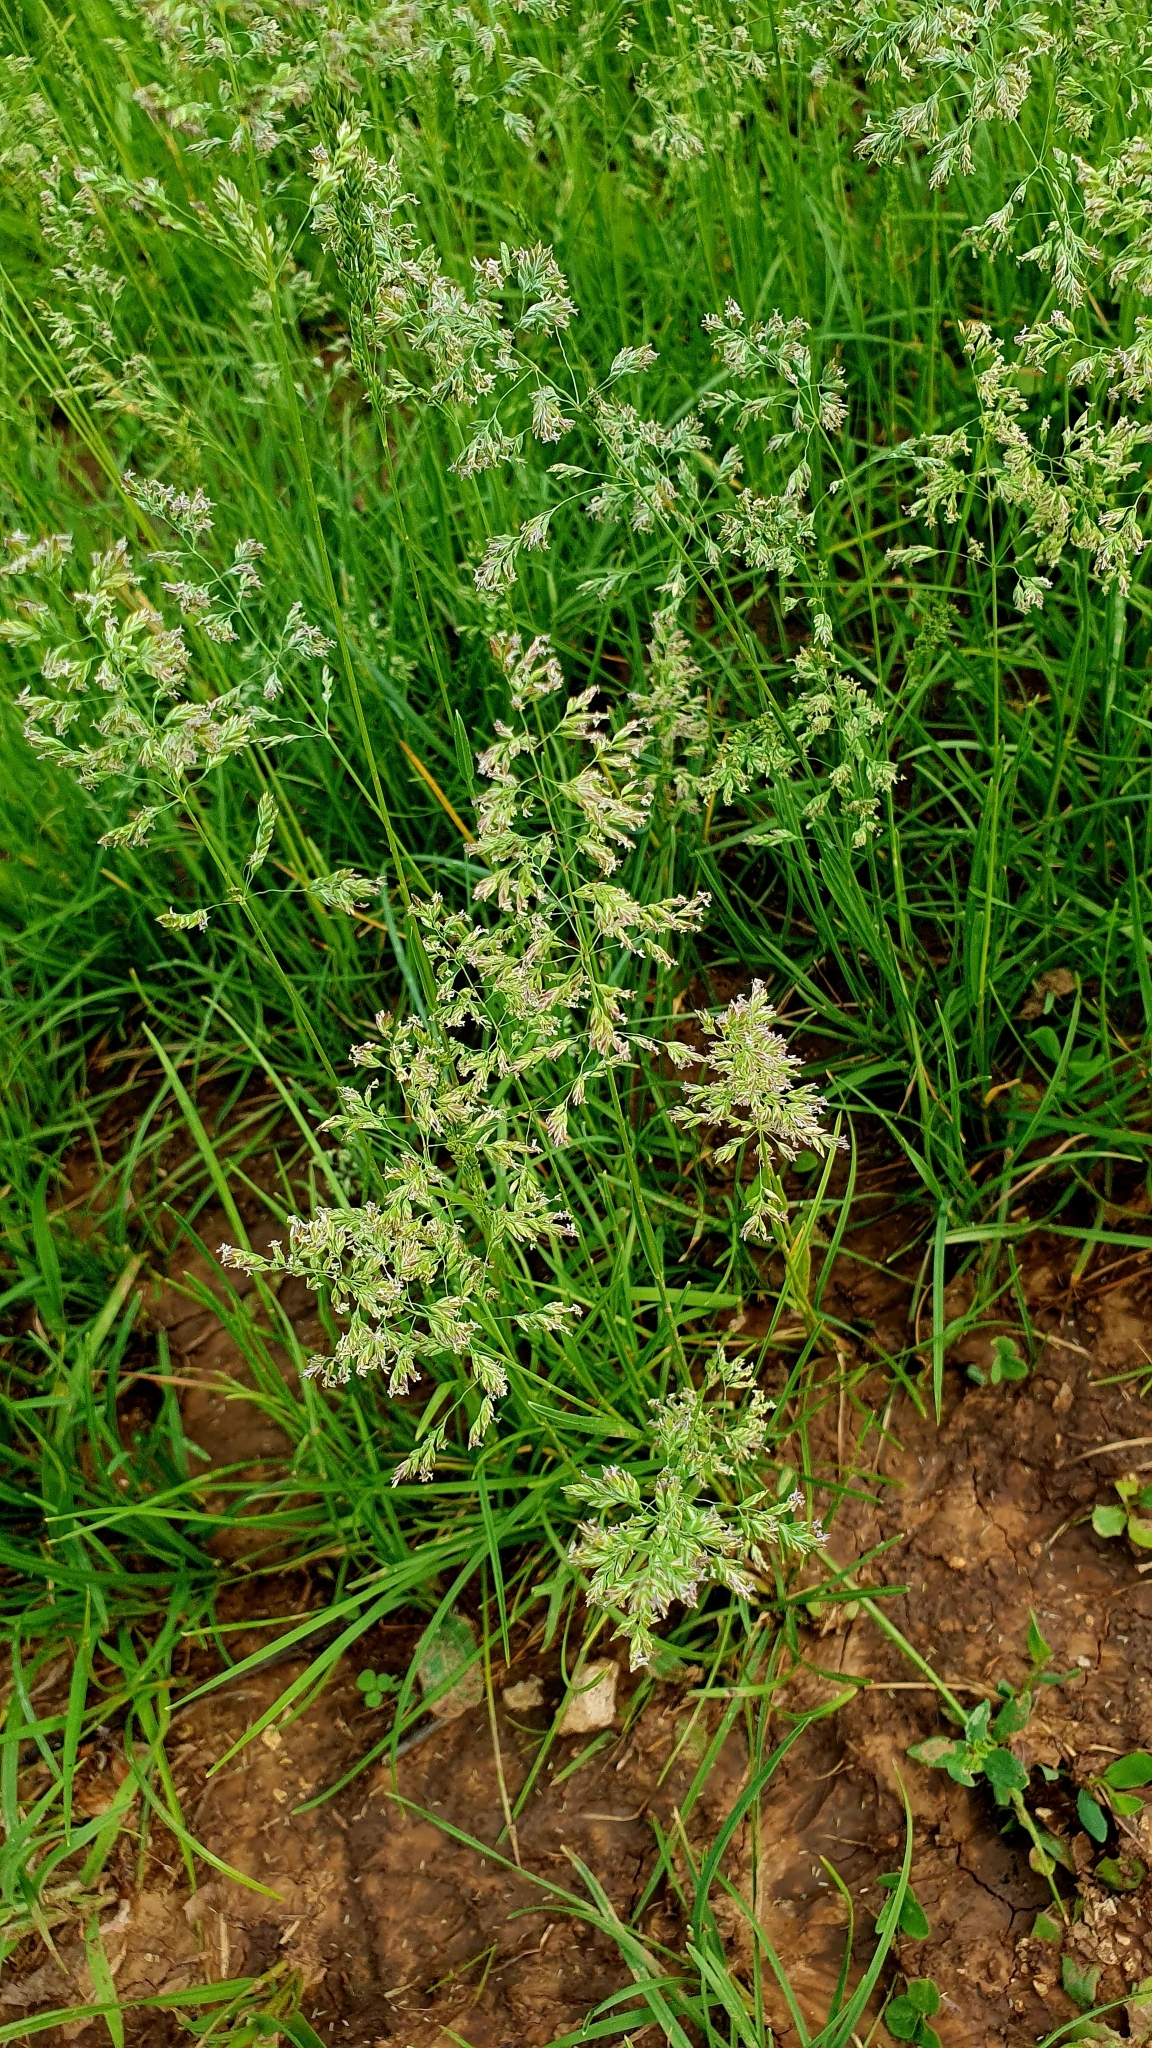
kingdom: Plantae
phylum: Tracheophyta
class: Liliopsida
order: Poales
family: Poaceae
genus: Poa
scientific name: Poa pratensis
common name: Kentucky bluegrass
